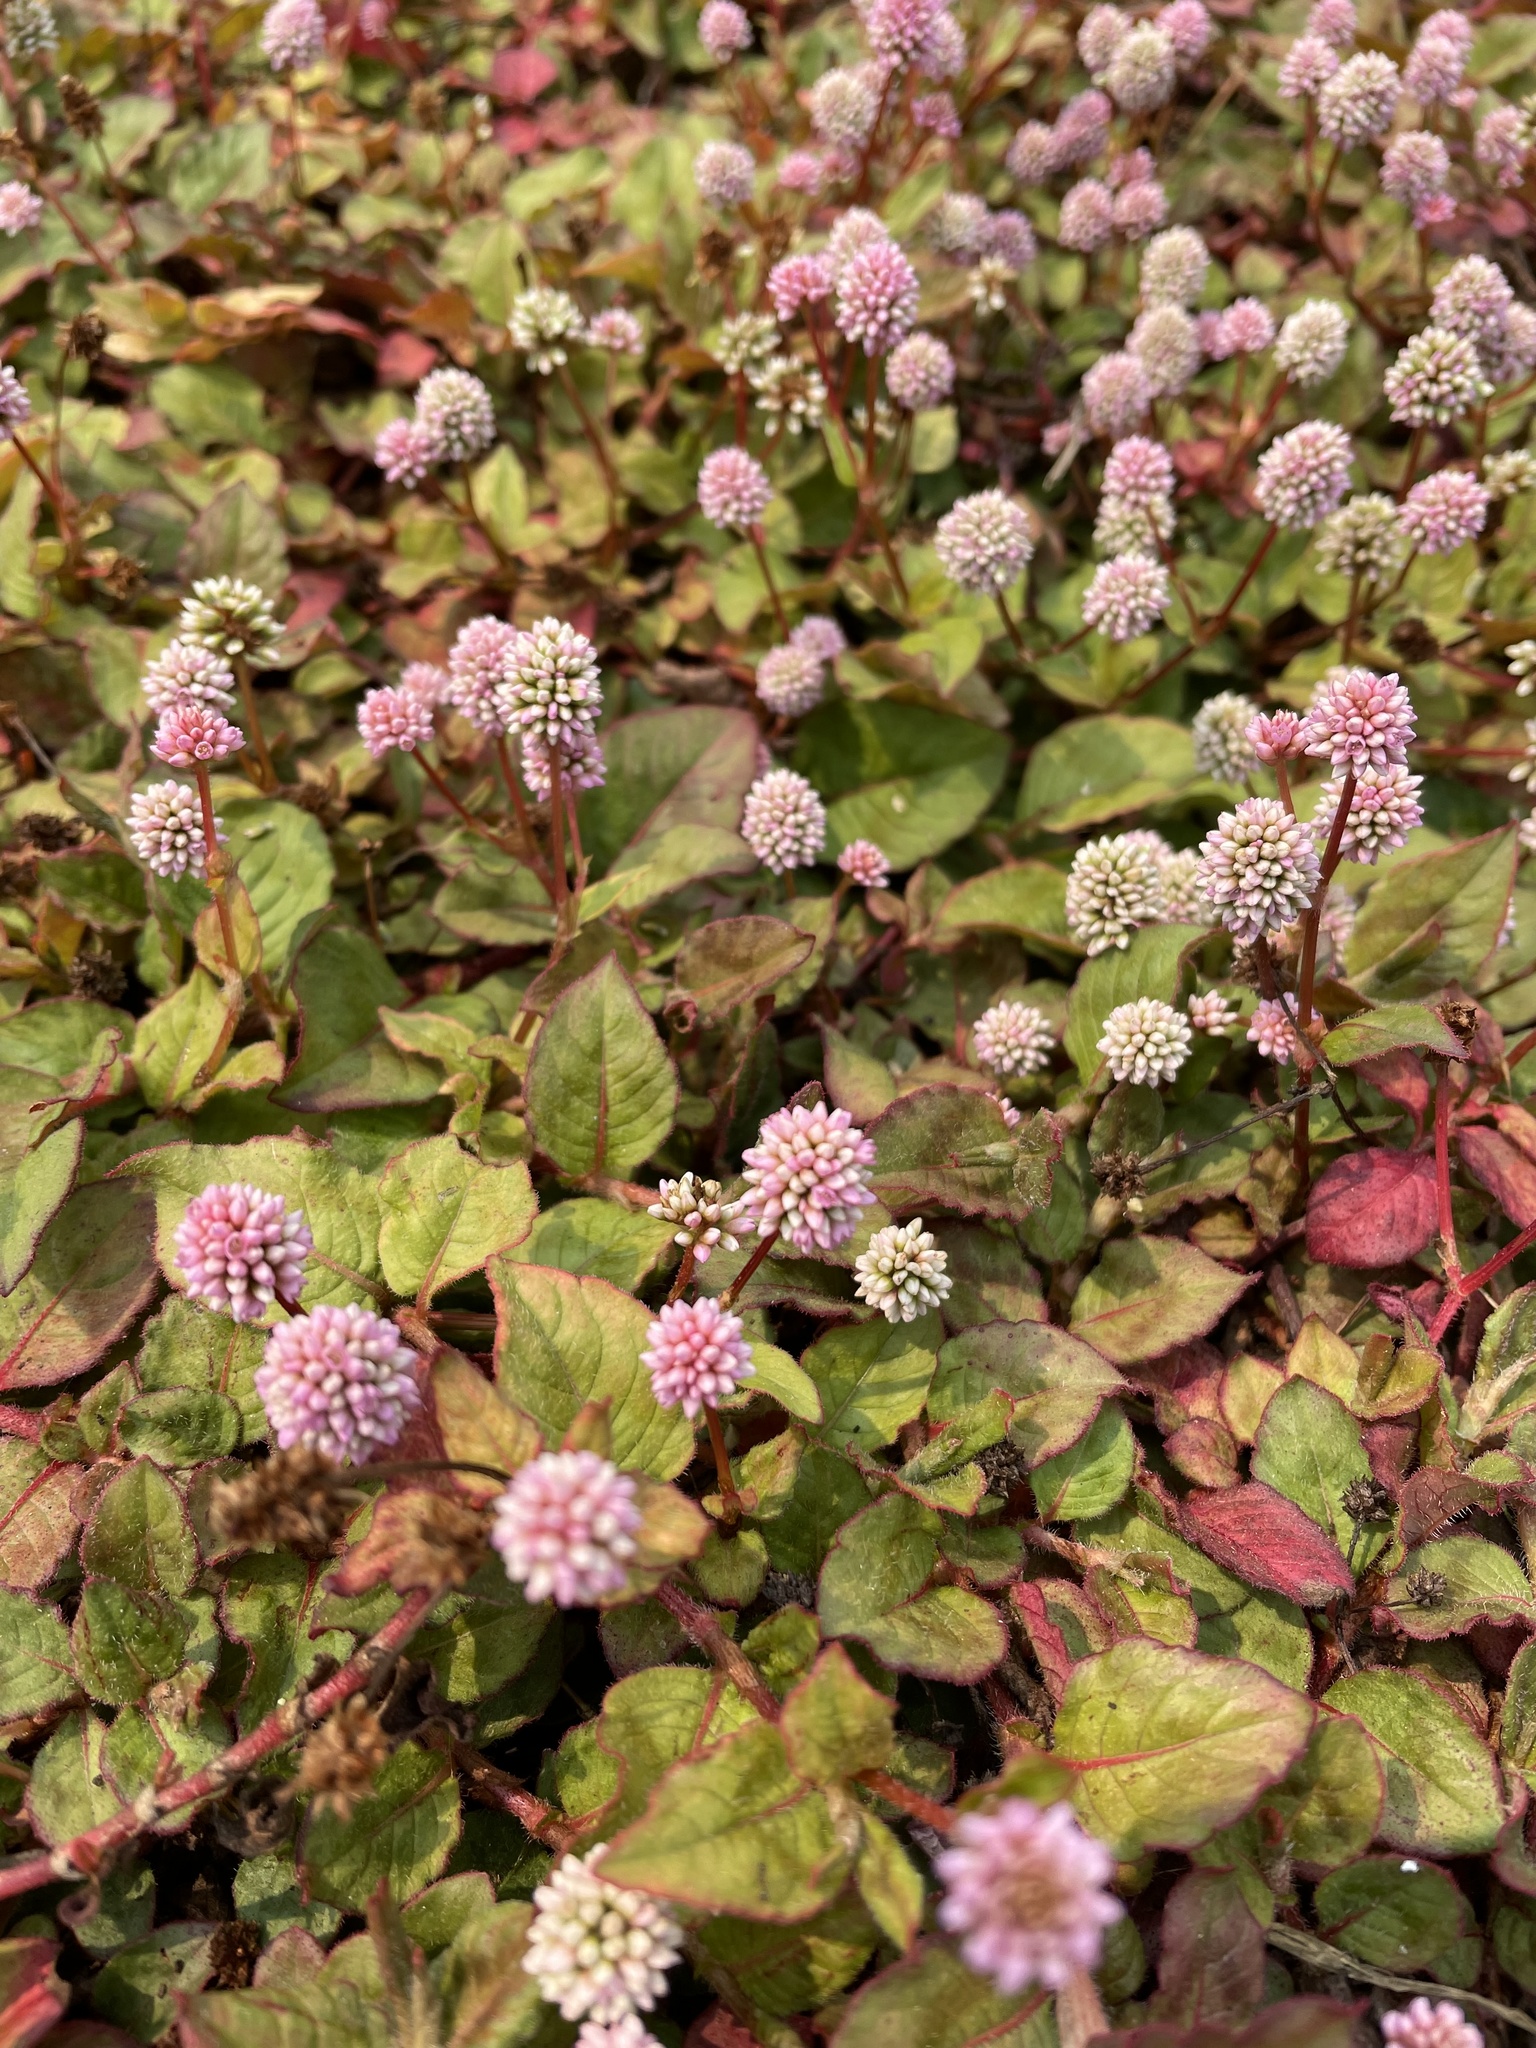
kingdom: Plantae
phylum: Tracheophyta
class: Magnoliopsida
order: Caryophyllales
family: Polygonaceae
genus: Persicaria
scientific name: Persicaria capitata
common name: Pinkhead smartweed
